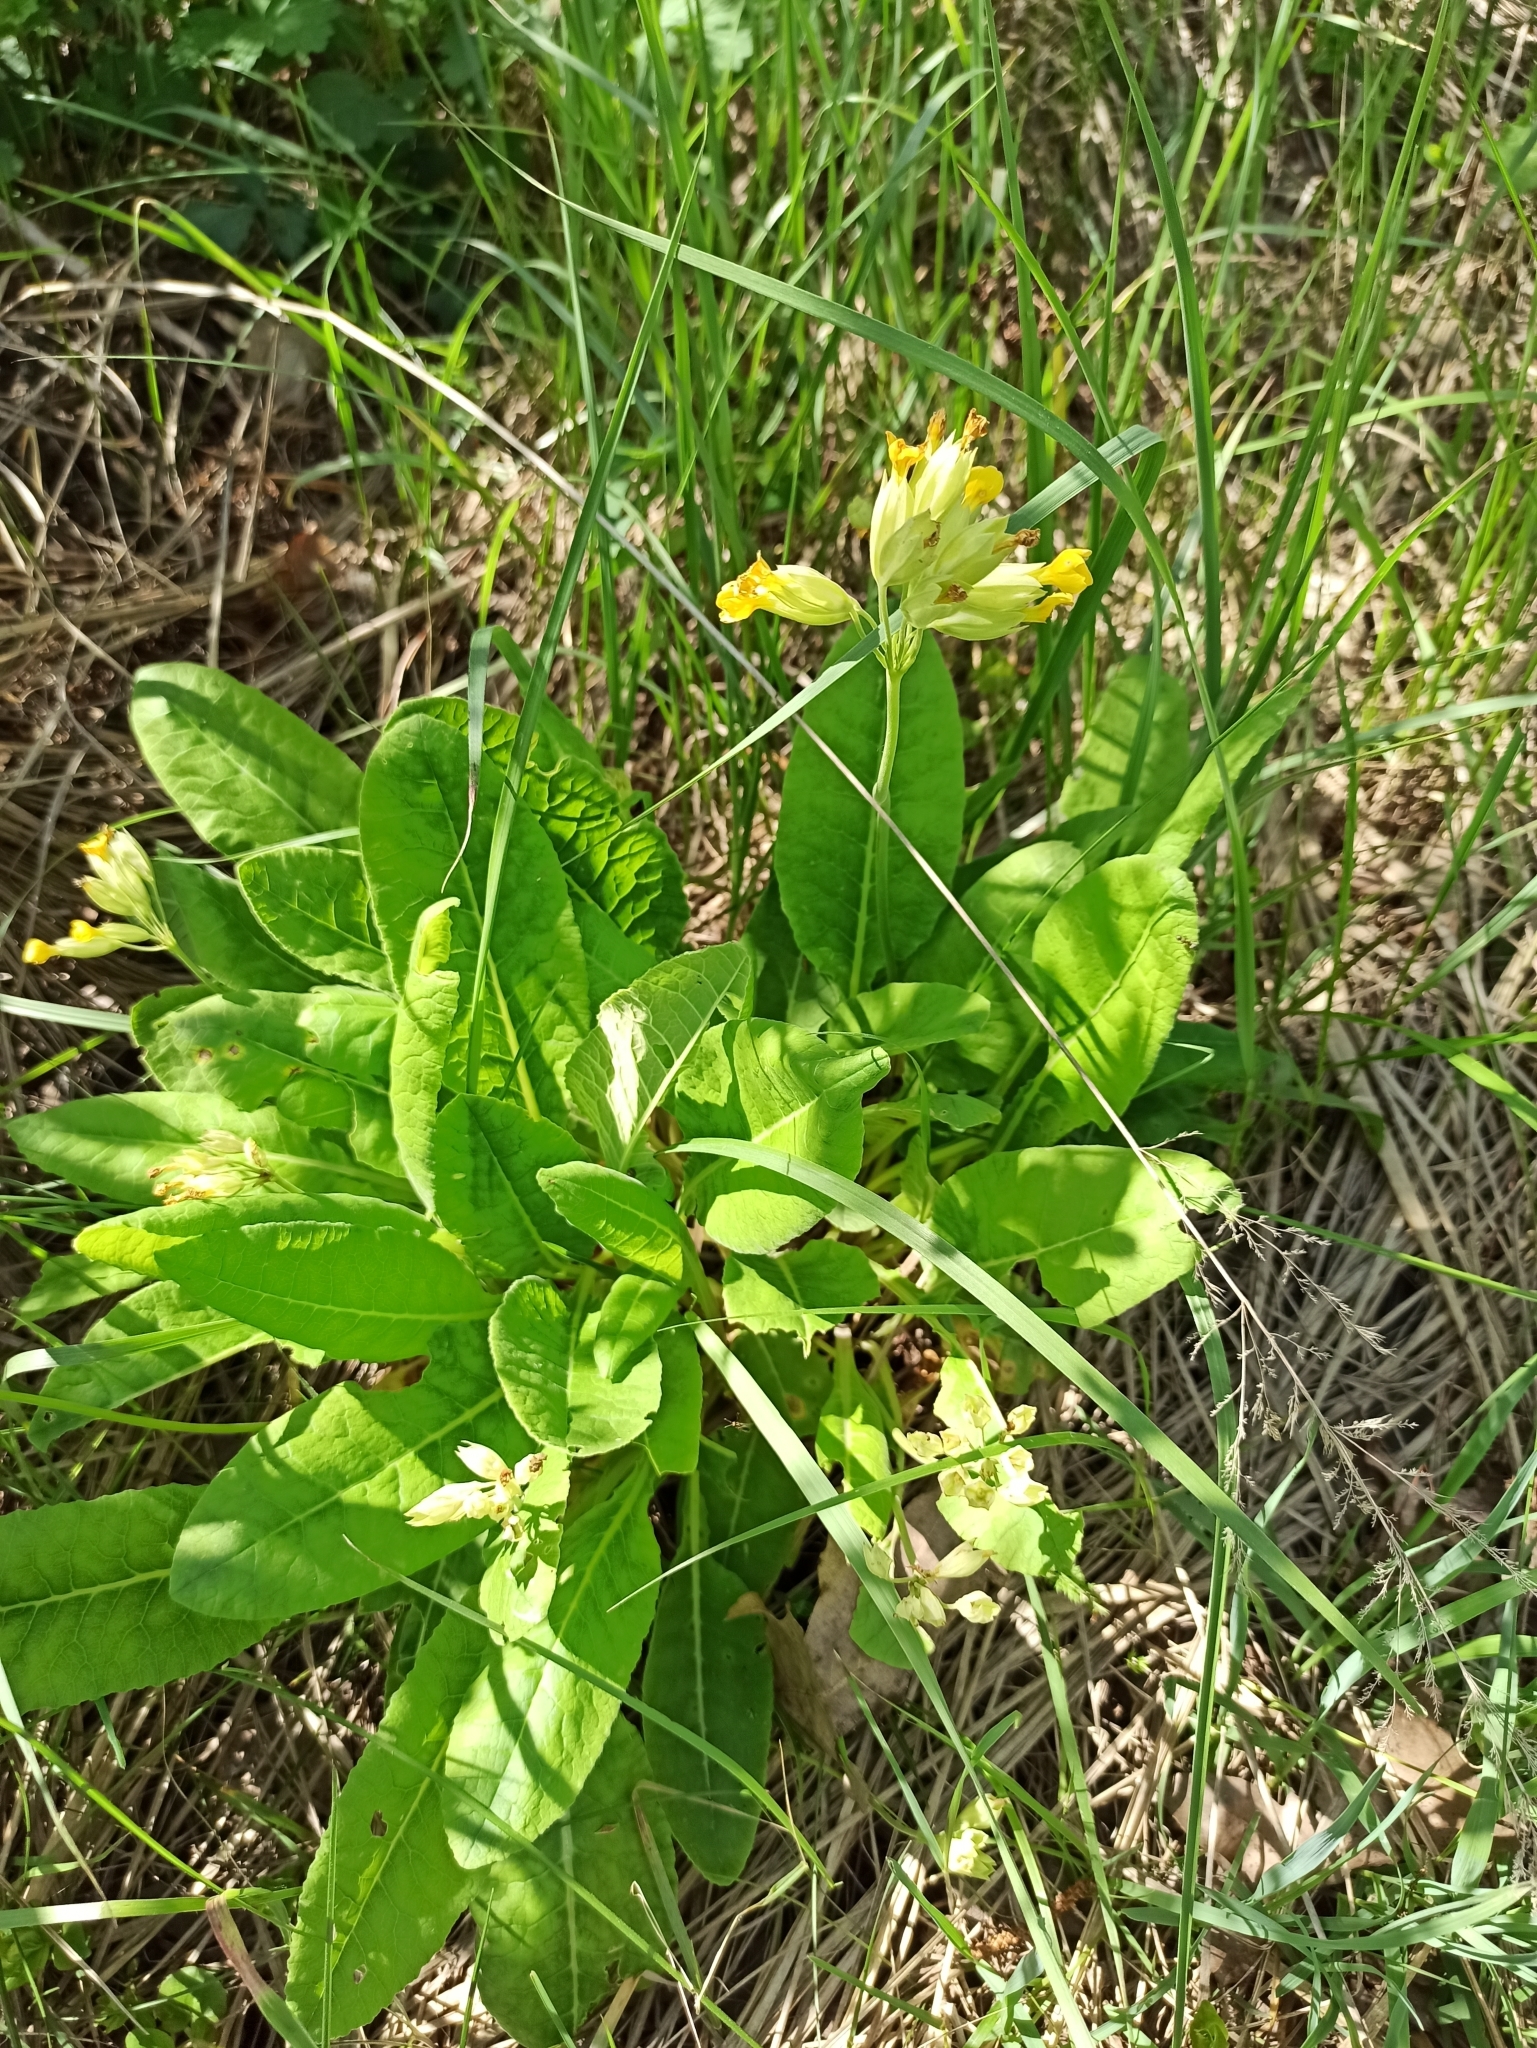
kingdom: Plantae
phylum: Tracheophyta
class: Magnoliopsida
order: Ericales
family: Primulaceae
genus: Primula
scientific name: Primula veris
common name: Cowslip
